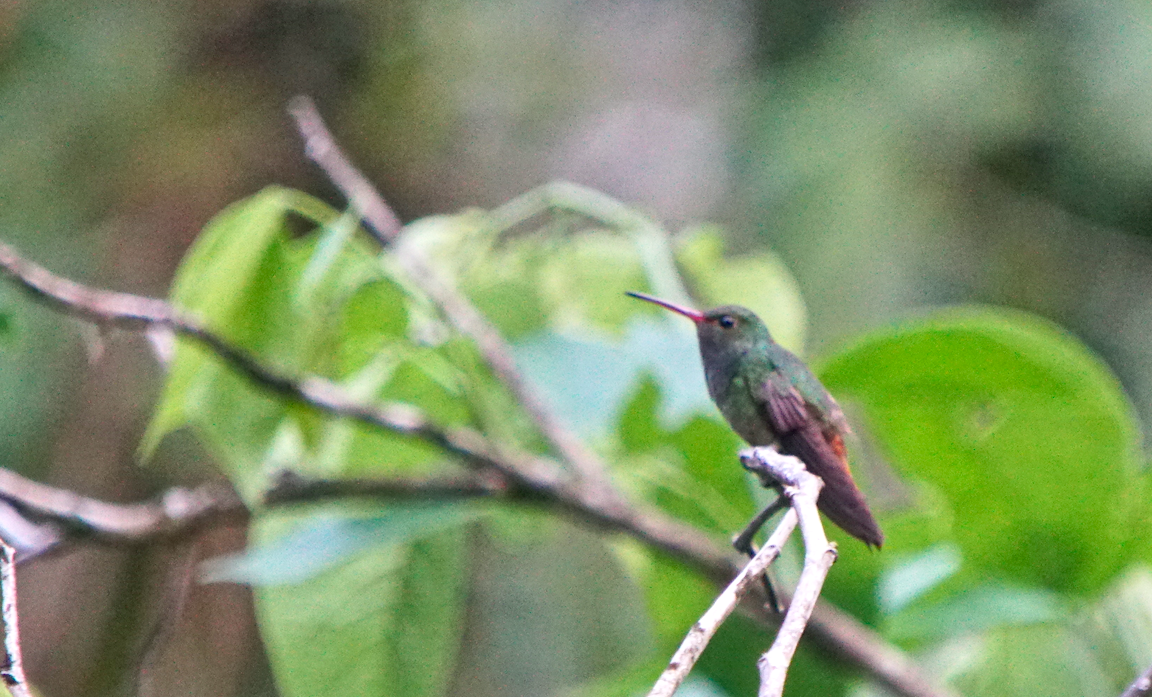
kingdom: Animalia
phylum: Chordata
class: Aves
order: Apodiformes
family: Trochilidae
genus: Amazilia
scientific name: Amazilia tzacatl
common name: Rufous-tailed hummingbird
